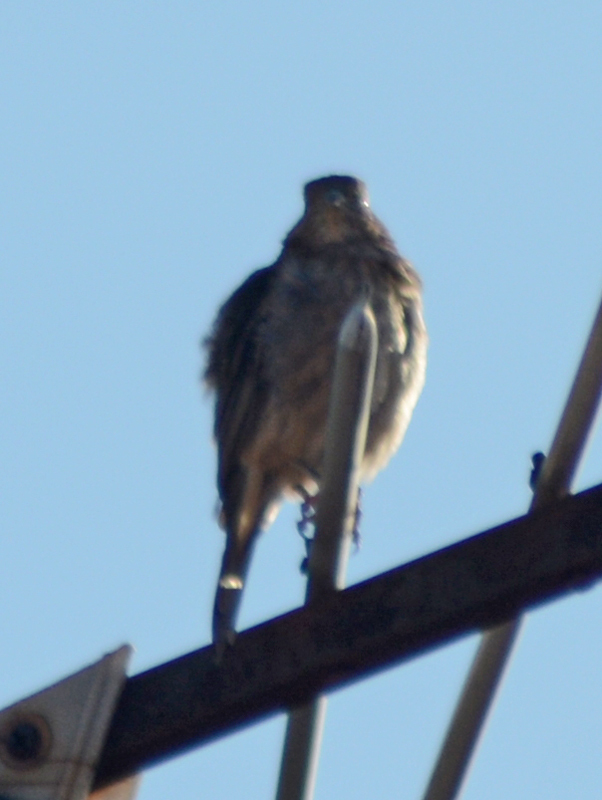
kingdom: Animalia
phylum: Chordata
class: Aves
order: Passeriformes
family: Fringillidae
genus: Haemorhous
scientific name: Haemorhous mexicanus
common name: House finch
